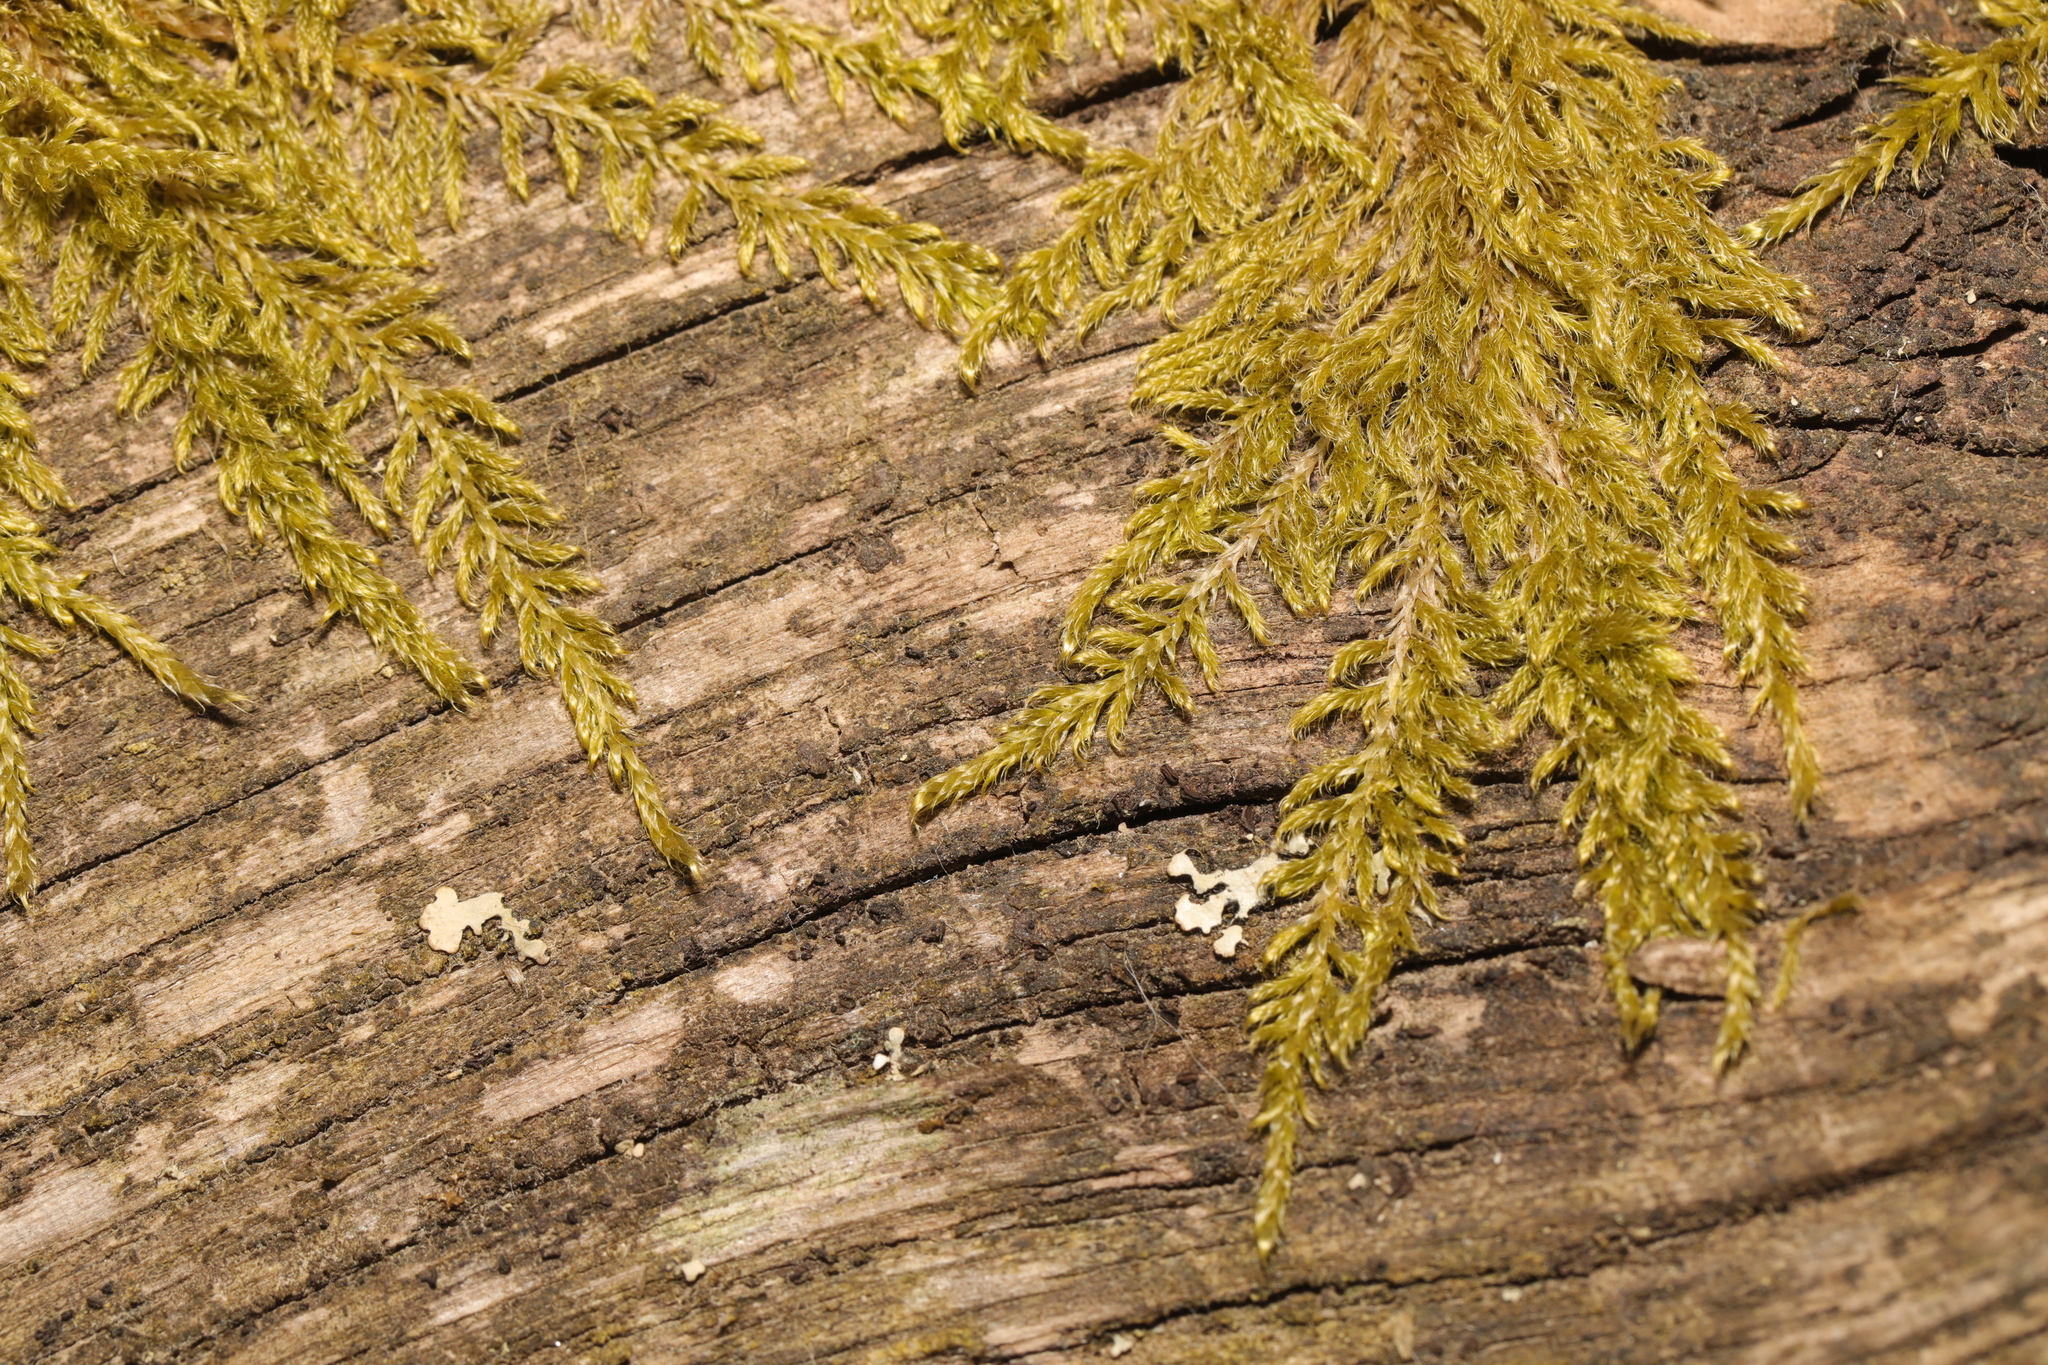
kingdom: Plantae
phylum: Bryophyta
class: Bryopsida
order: Hypnales
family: Hypnaceae
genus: Hypnum
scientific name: Hypnum cupressiforme
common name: Cypress-leaved plait-moss
